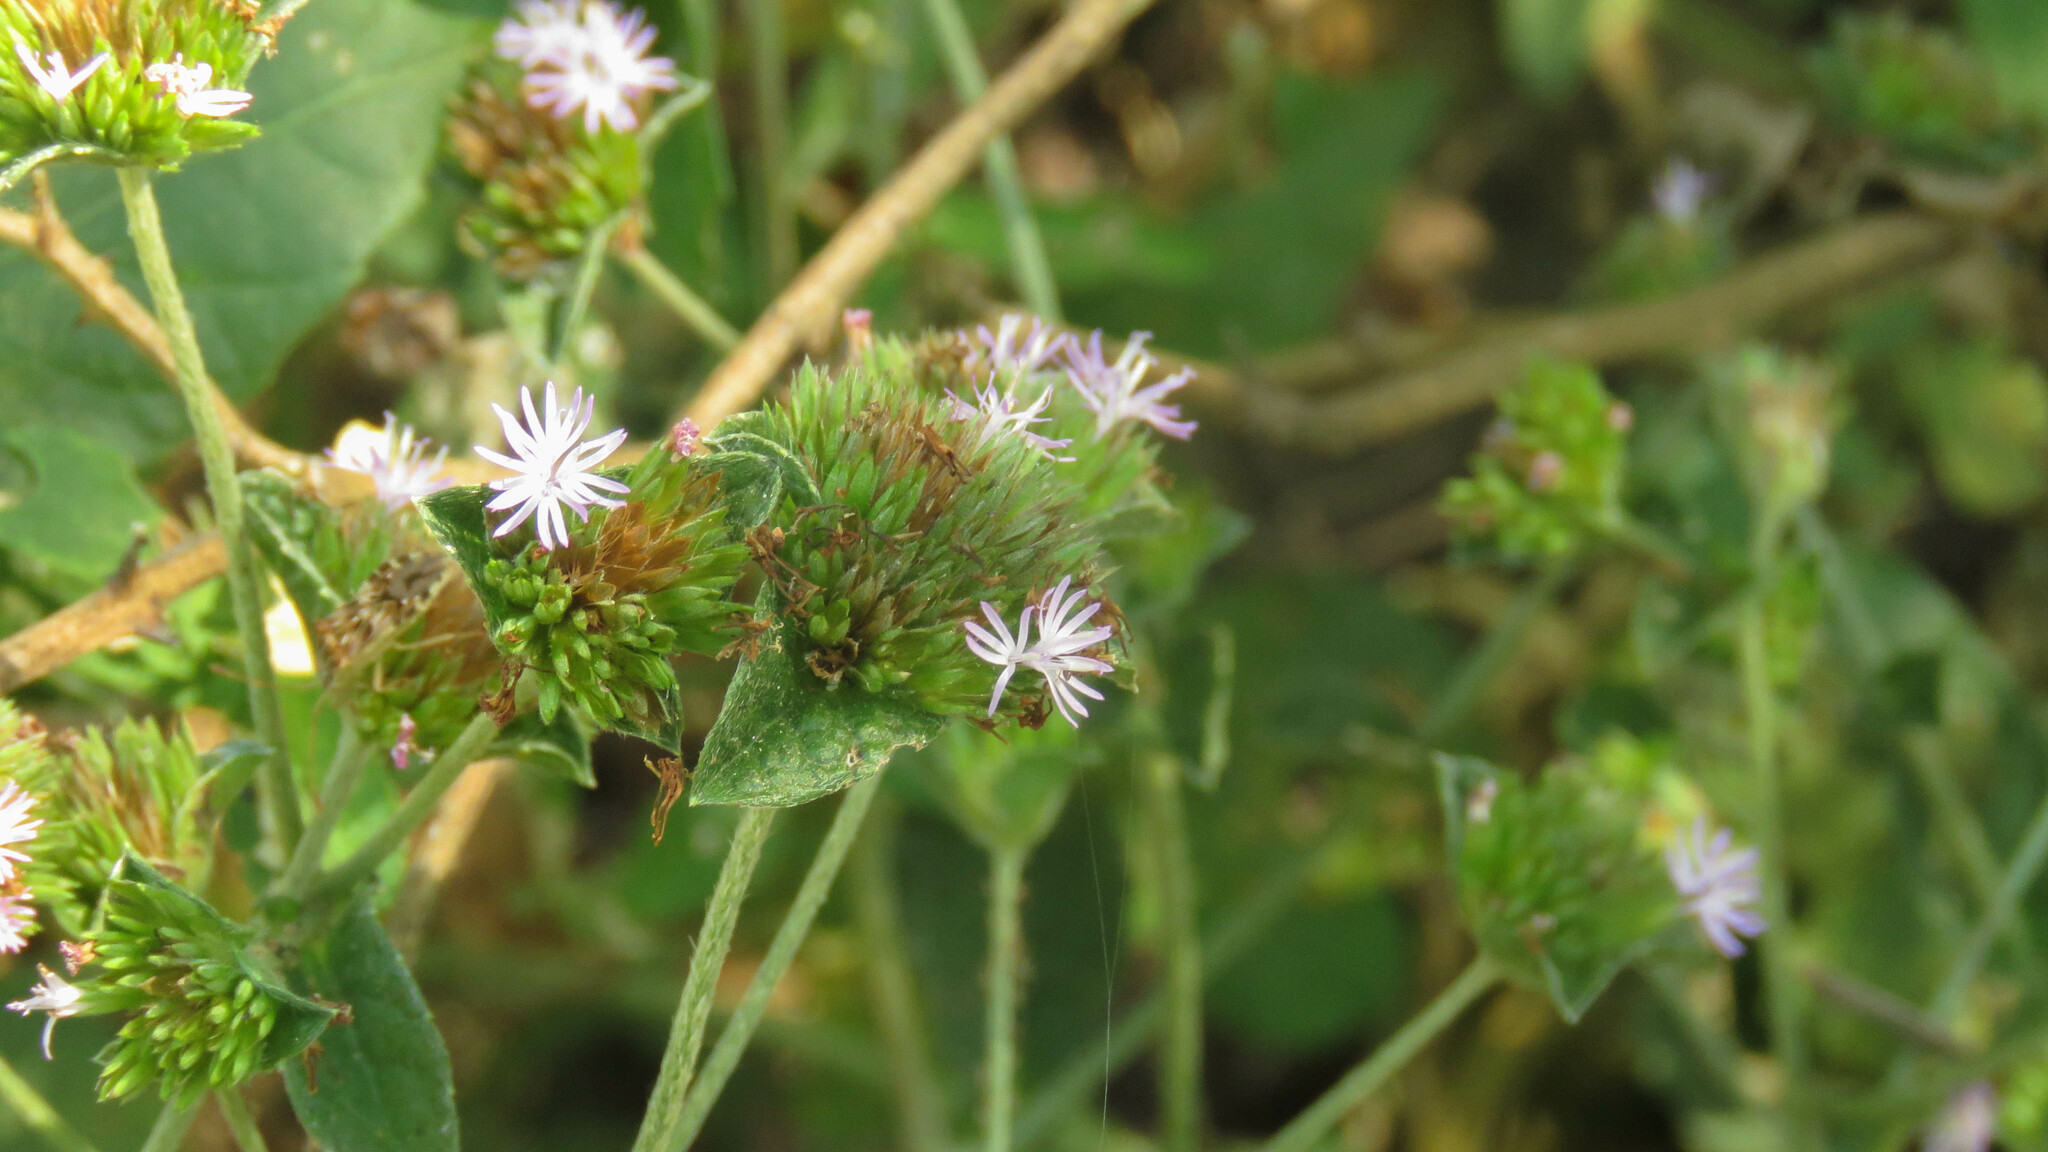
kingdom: Plantae
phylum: Tracheophyta
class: Magnoliopsida
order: Asterales
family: Asteraceae
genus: Elephantopus
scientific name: Elephantopus mollis
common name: Soft elephantsfoot
